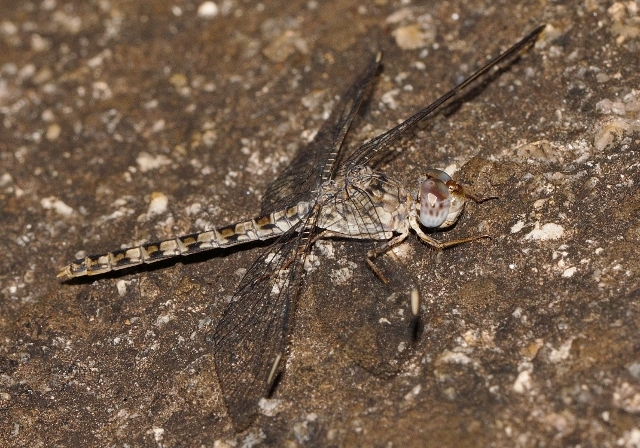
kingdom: Animalia
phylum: Arthropoda
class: Insecta
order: Odonata
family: Libellulidae
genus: Crocothemis
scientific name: Crocothemis saxicolor
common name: Granite scarlet
